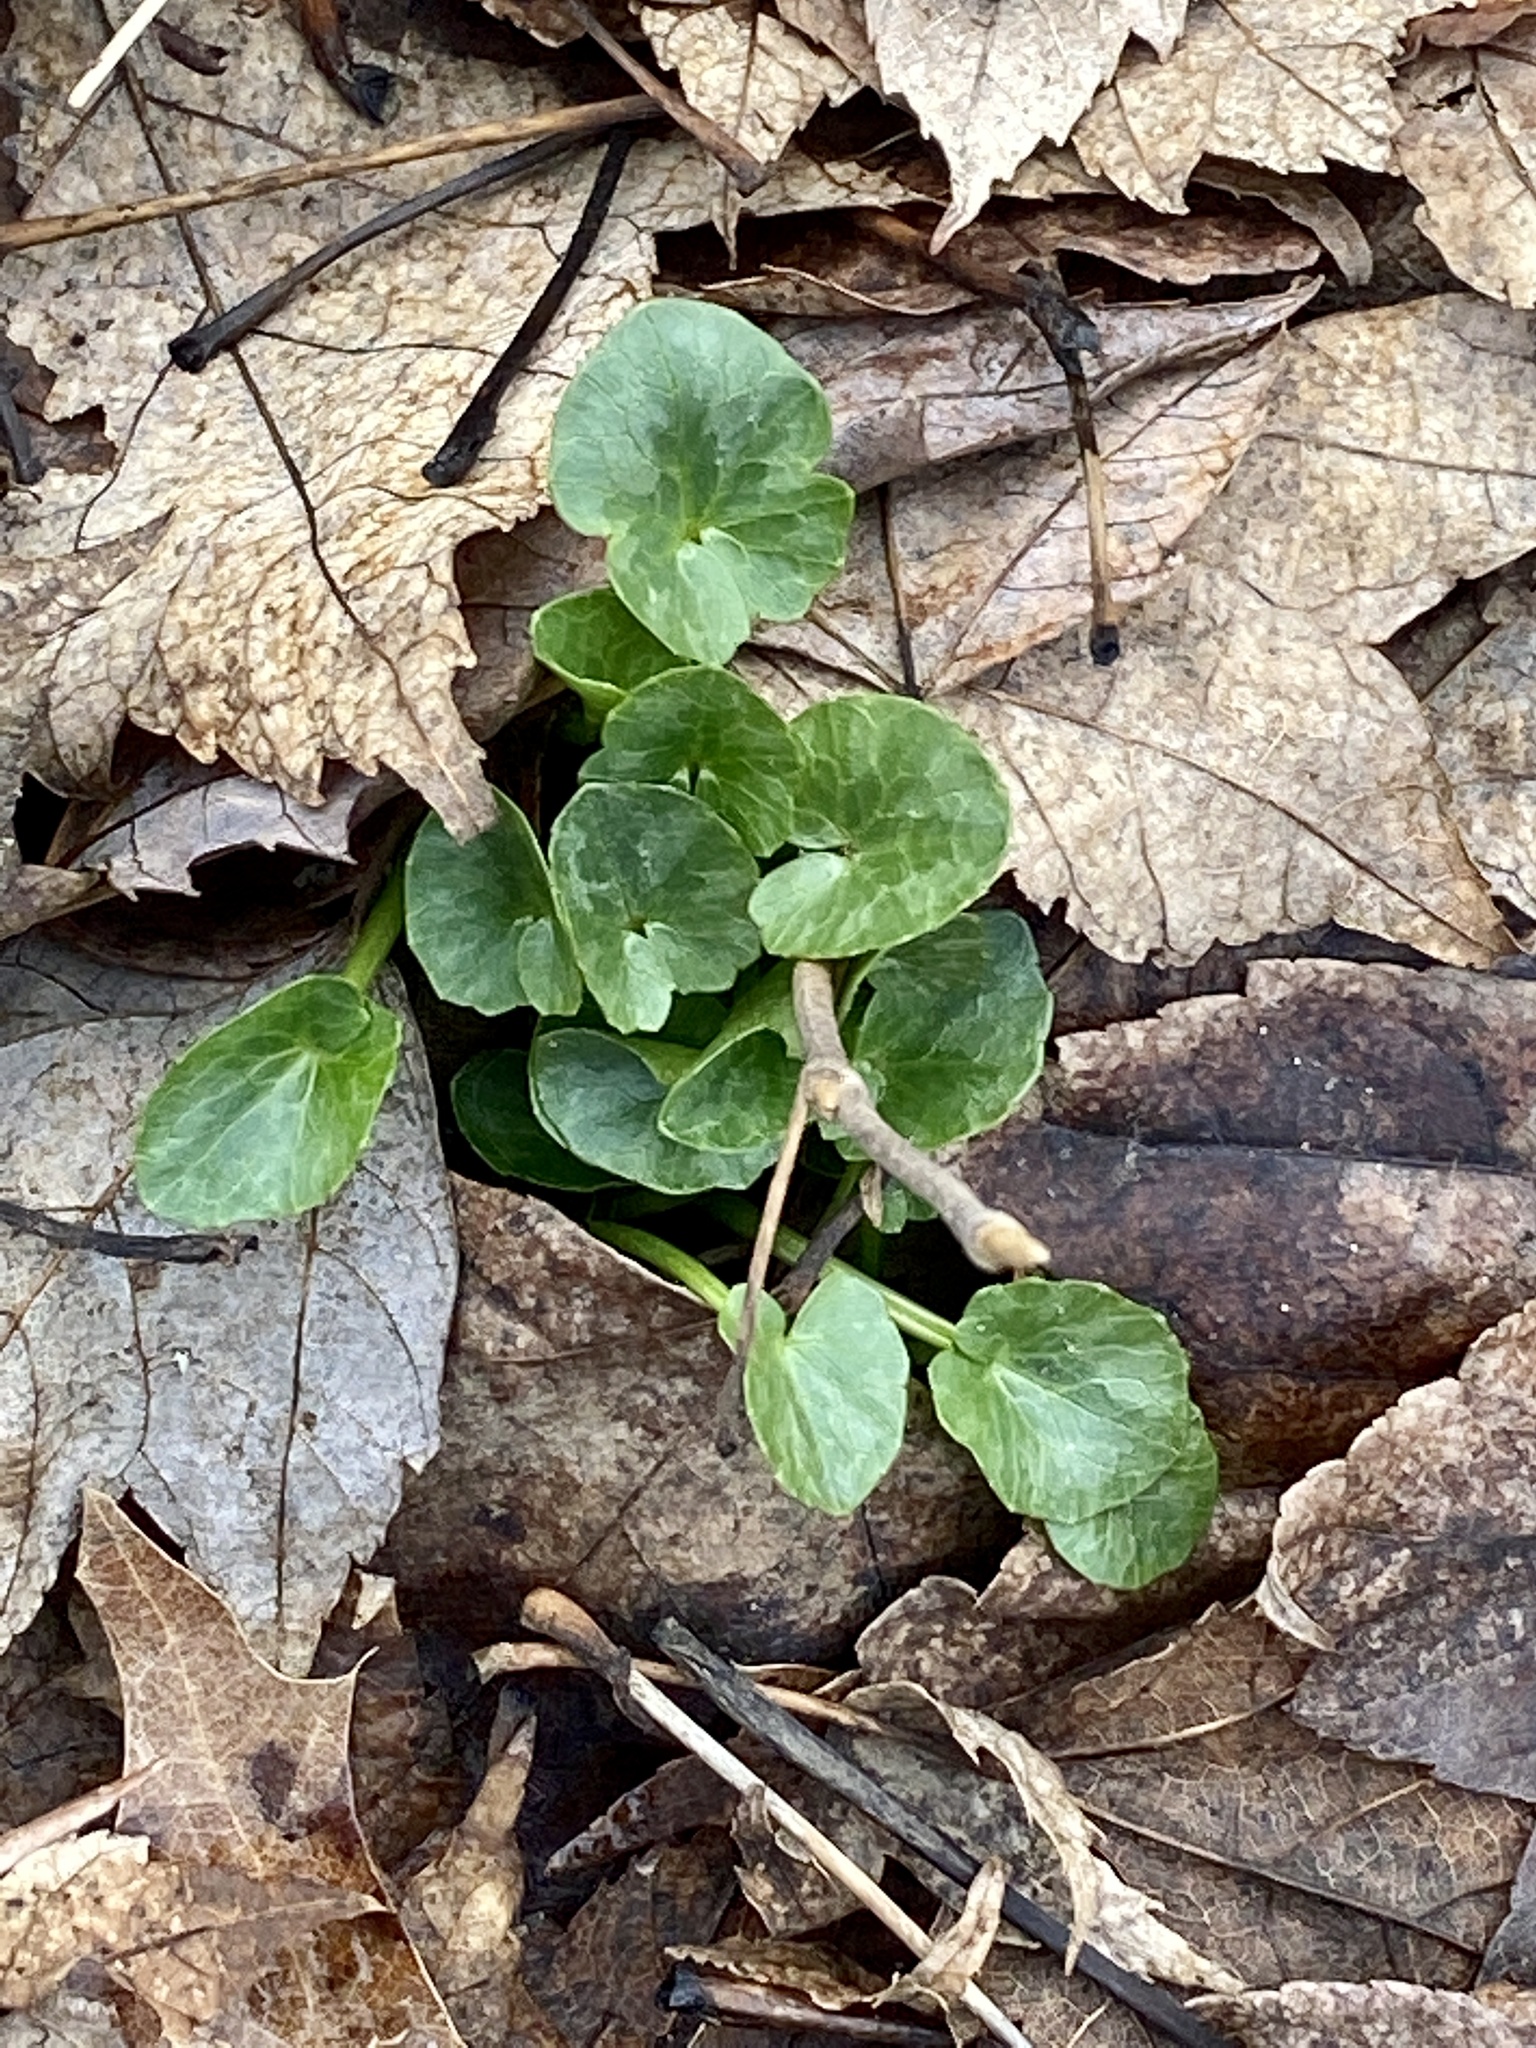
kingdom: Plantae
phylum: Tracheophyta
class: Magnoliopsida
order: Ranunculales
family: Ranunculaceae
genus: Ficaria
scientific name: Ficaria verna
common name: Lesser celandine
